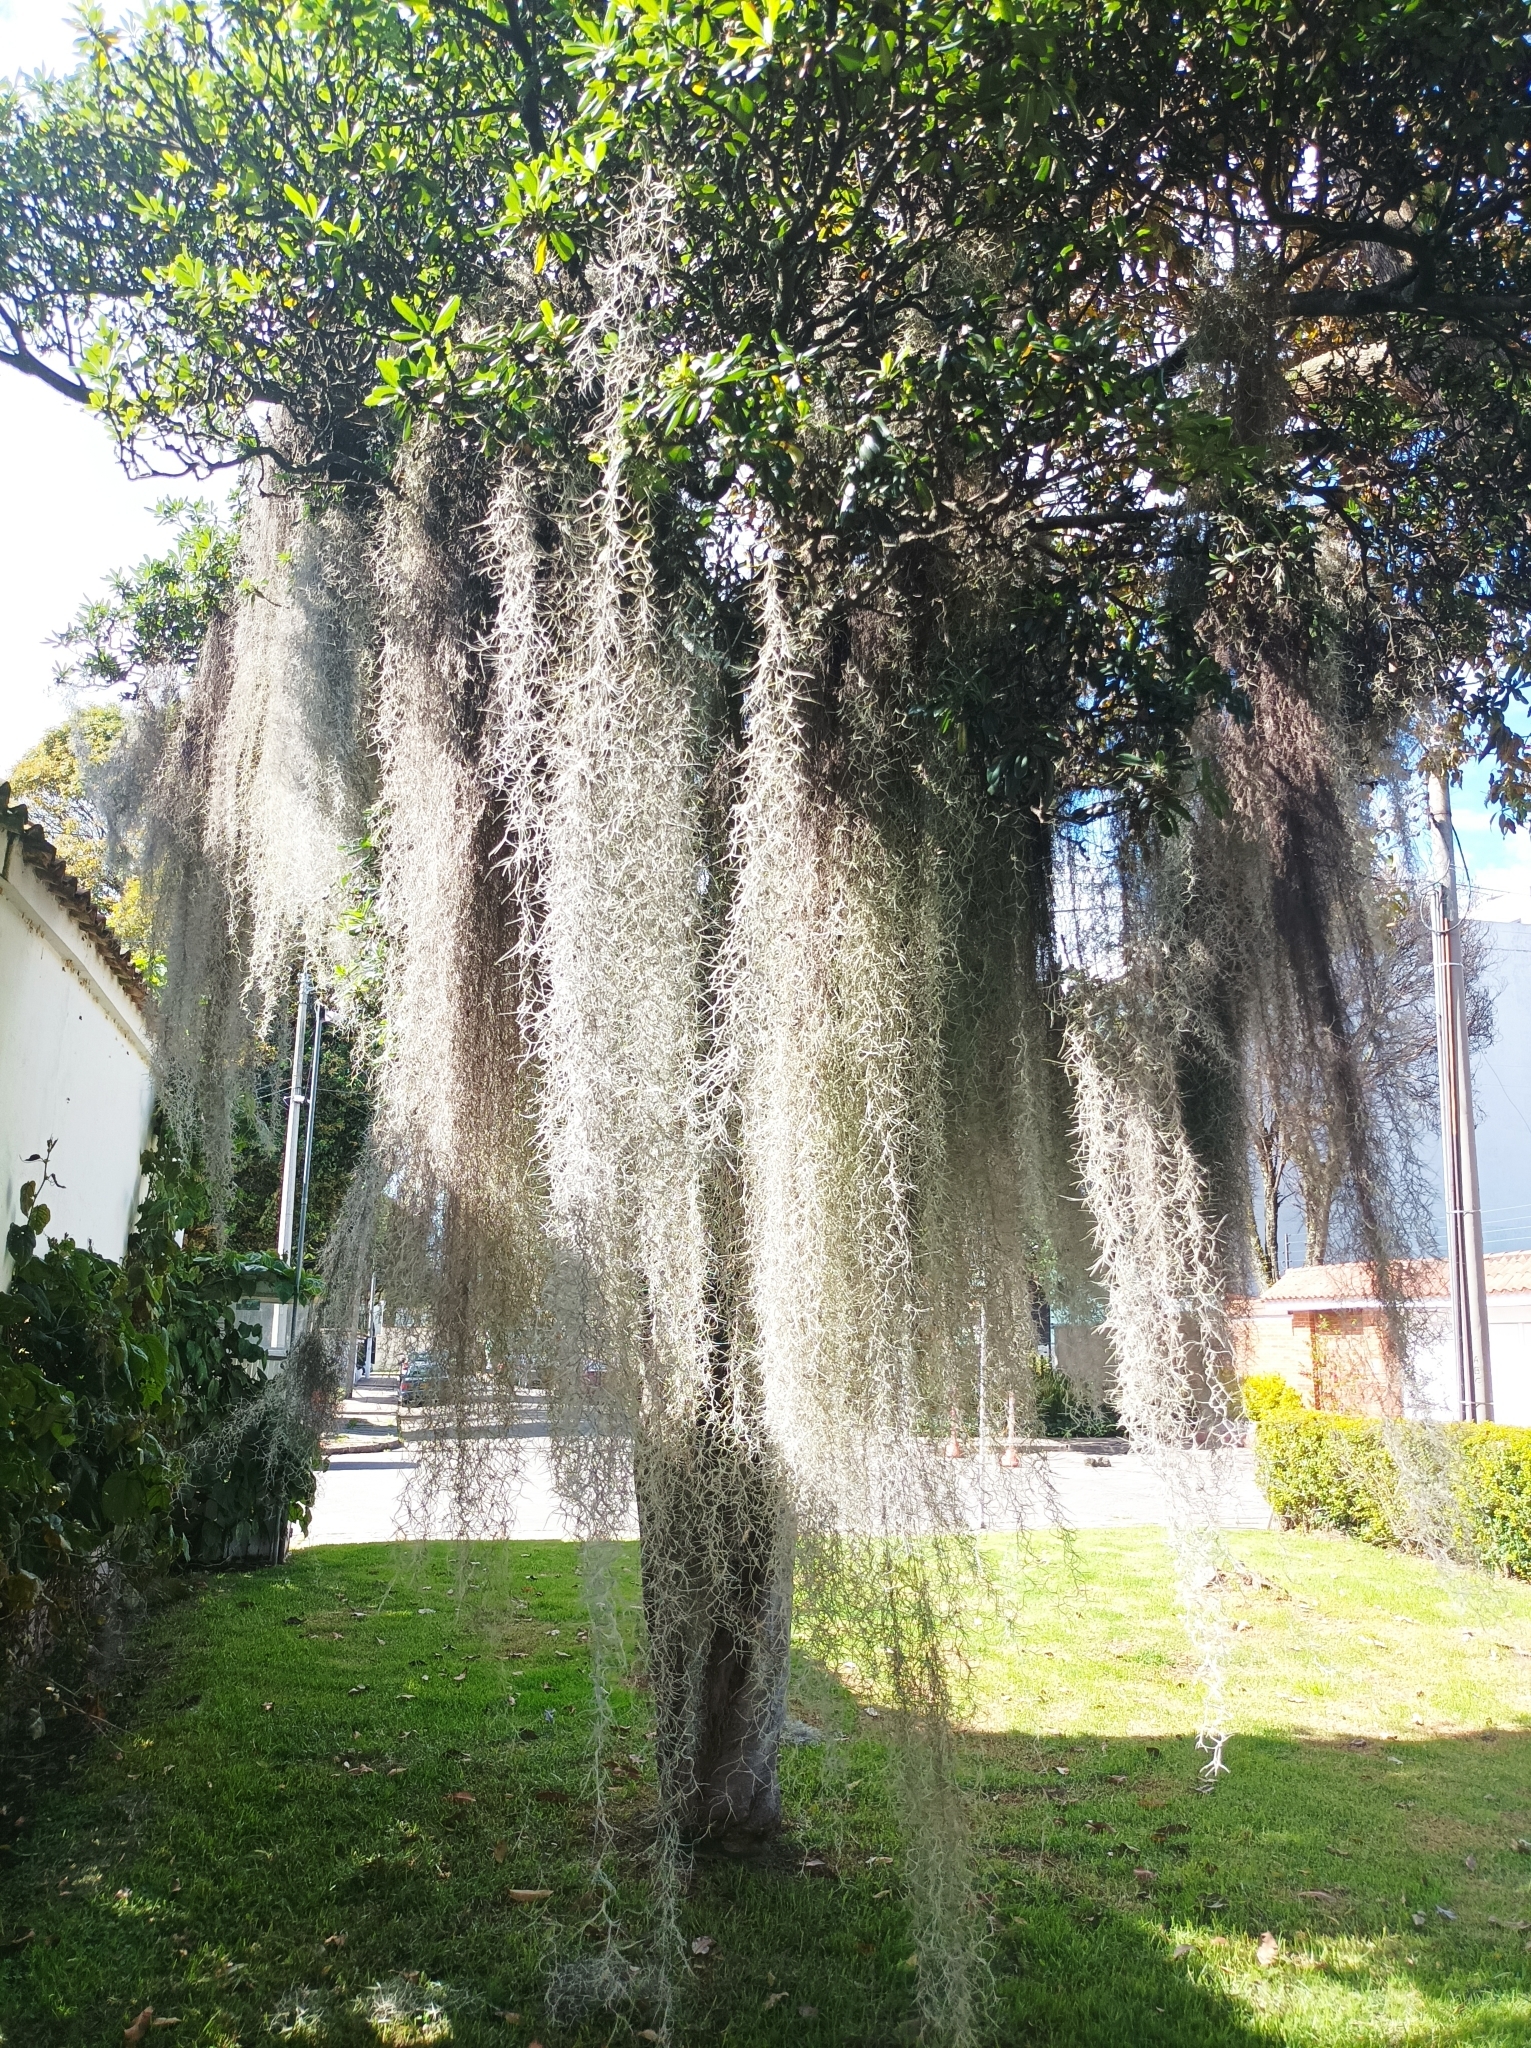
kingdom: Plantae
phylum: Tracheophyta
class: Liliopsida
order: Poales
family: Bromeliaceae
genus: Tillandsia
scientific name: Tillandsia usneoides
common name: Spanish moss
